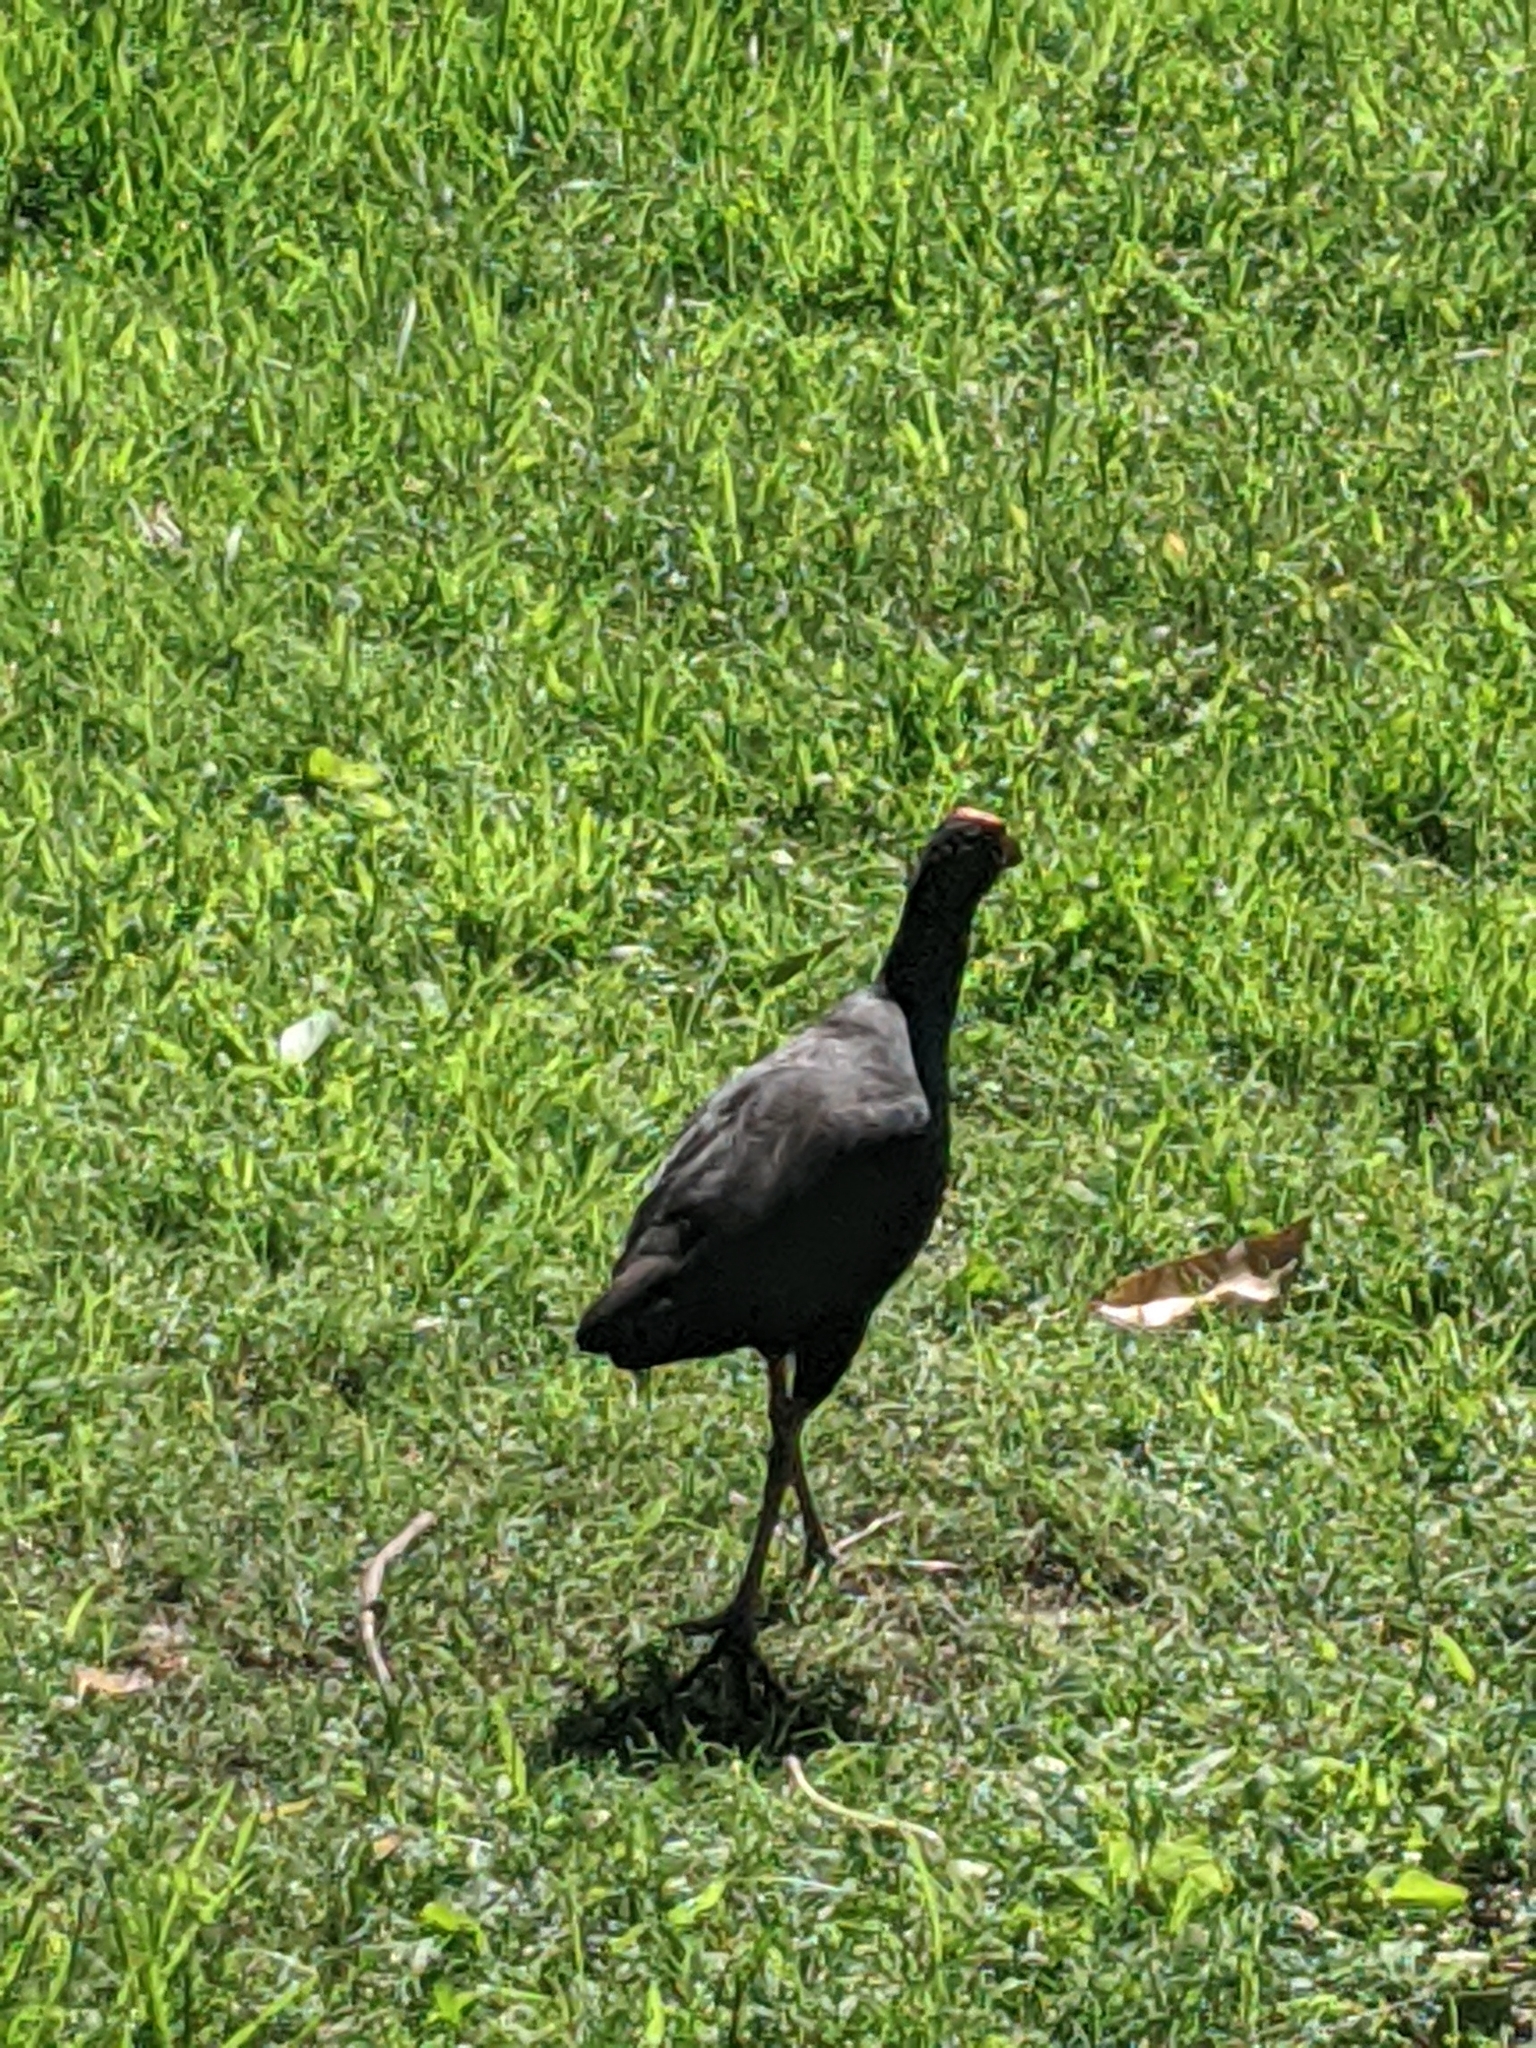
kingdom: Animalia
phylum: Chordata
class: Aves
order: Gruiformes
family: Rallidae
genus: Porphyrio
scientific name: Porphyrio melanotus
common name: Australasian swamphen
